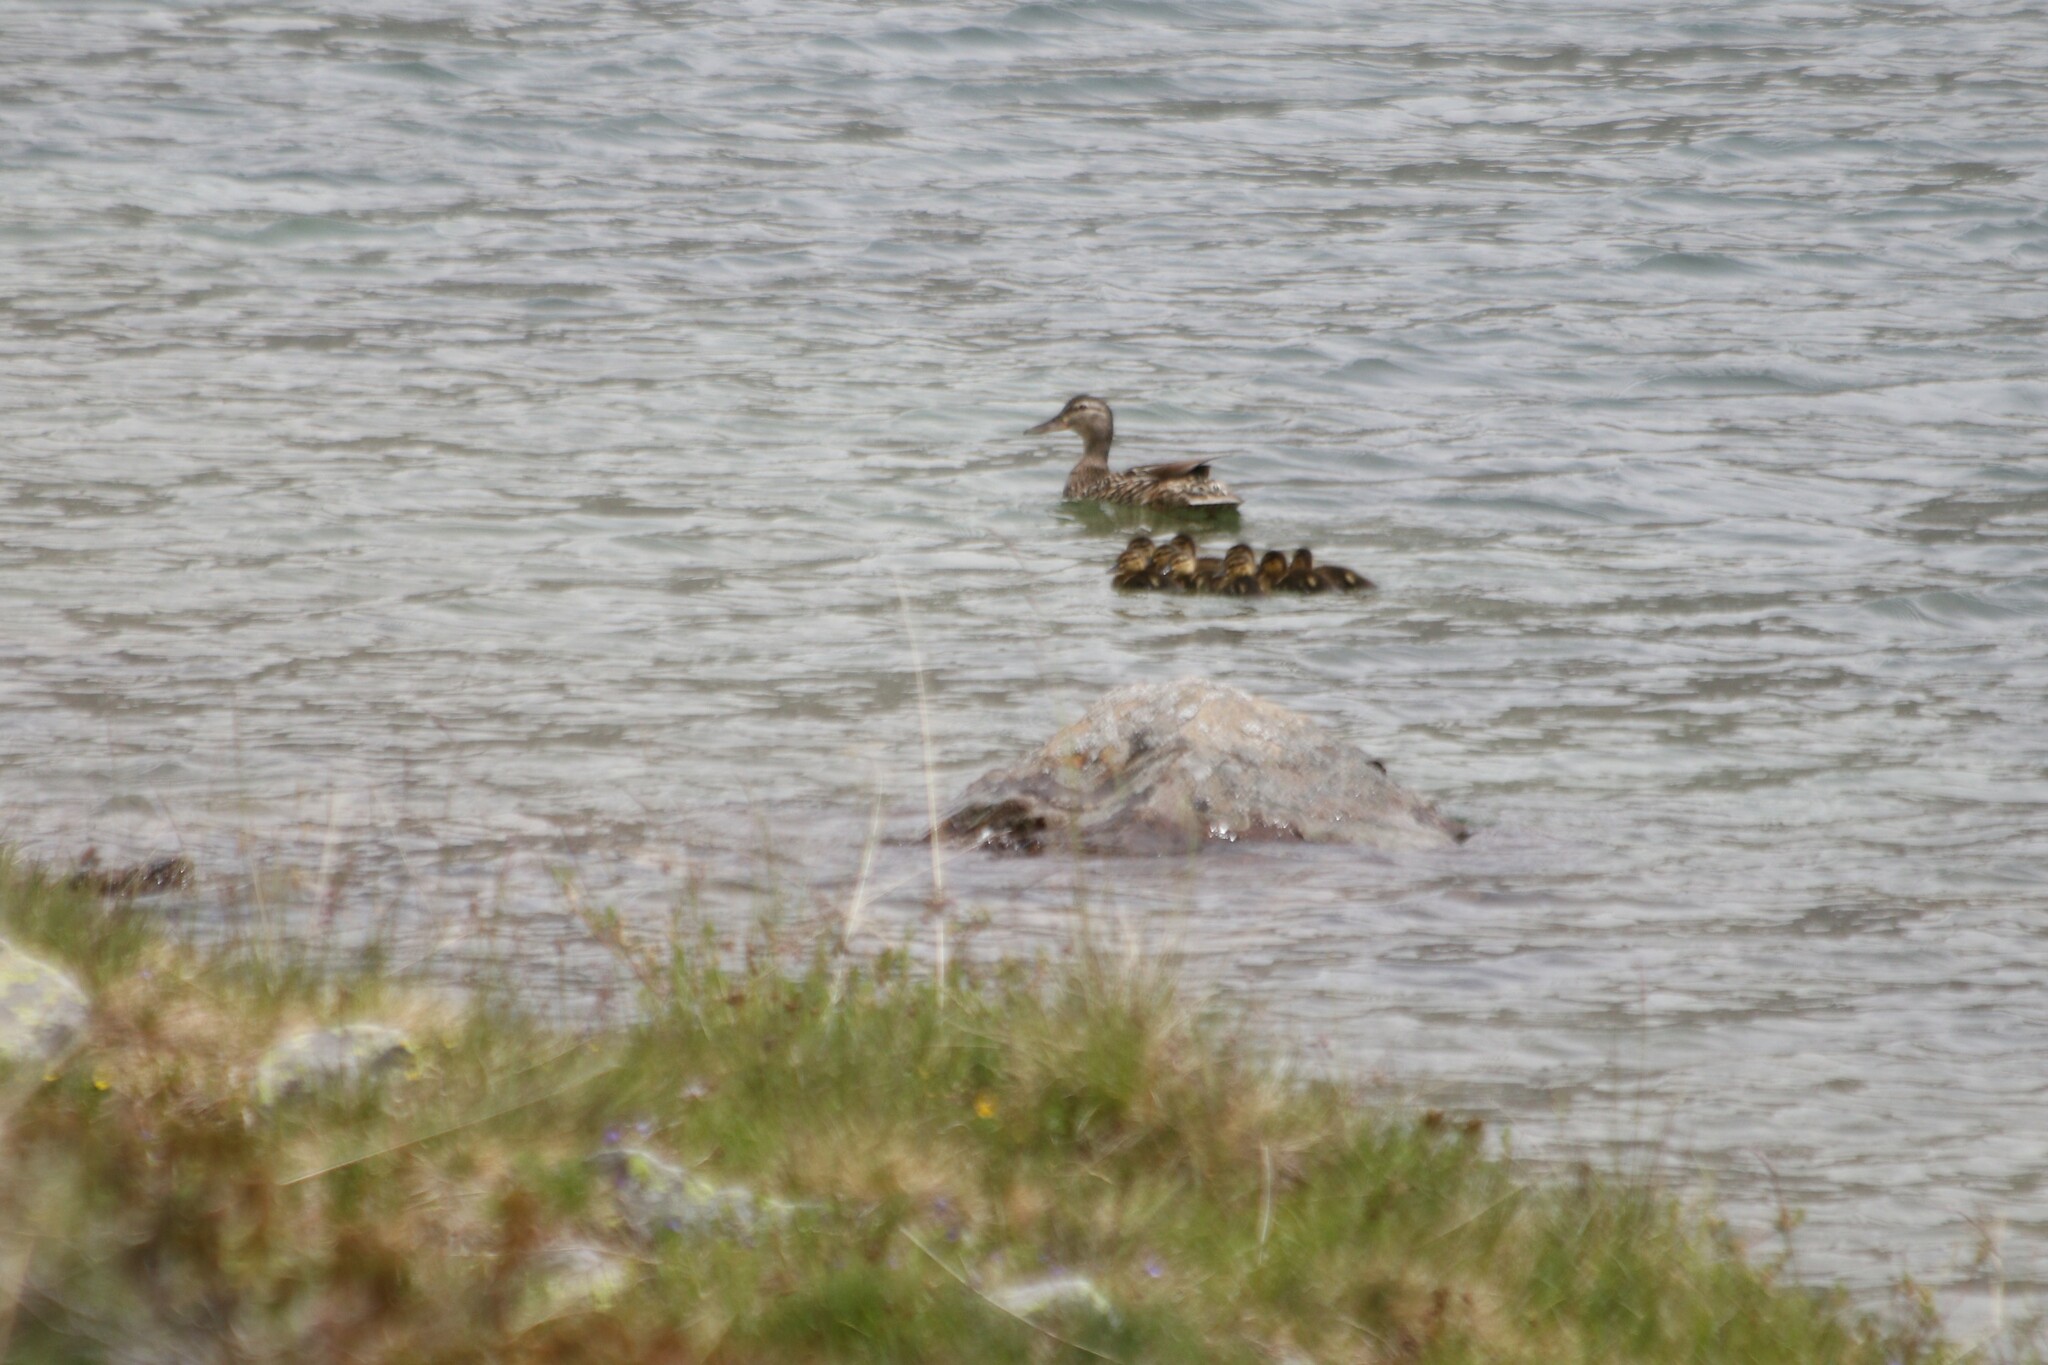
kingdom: Animalia
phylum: Chordata
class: Aves
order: Anseriformes
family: Anatidae
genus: Anas
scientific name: Anas platyrhynchos
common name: Mallard
